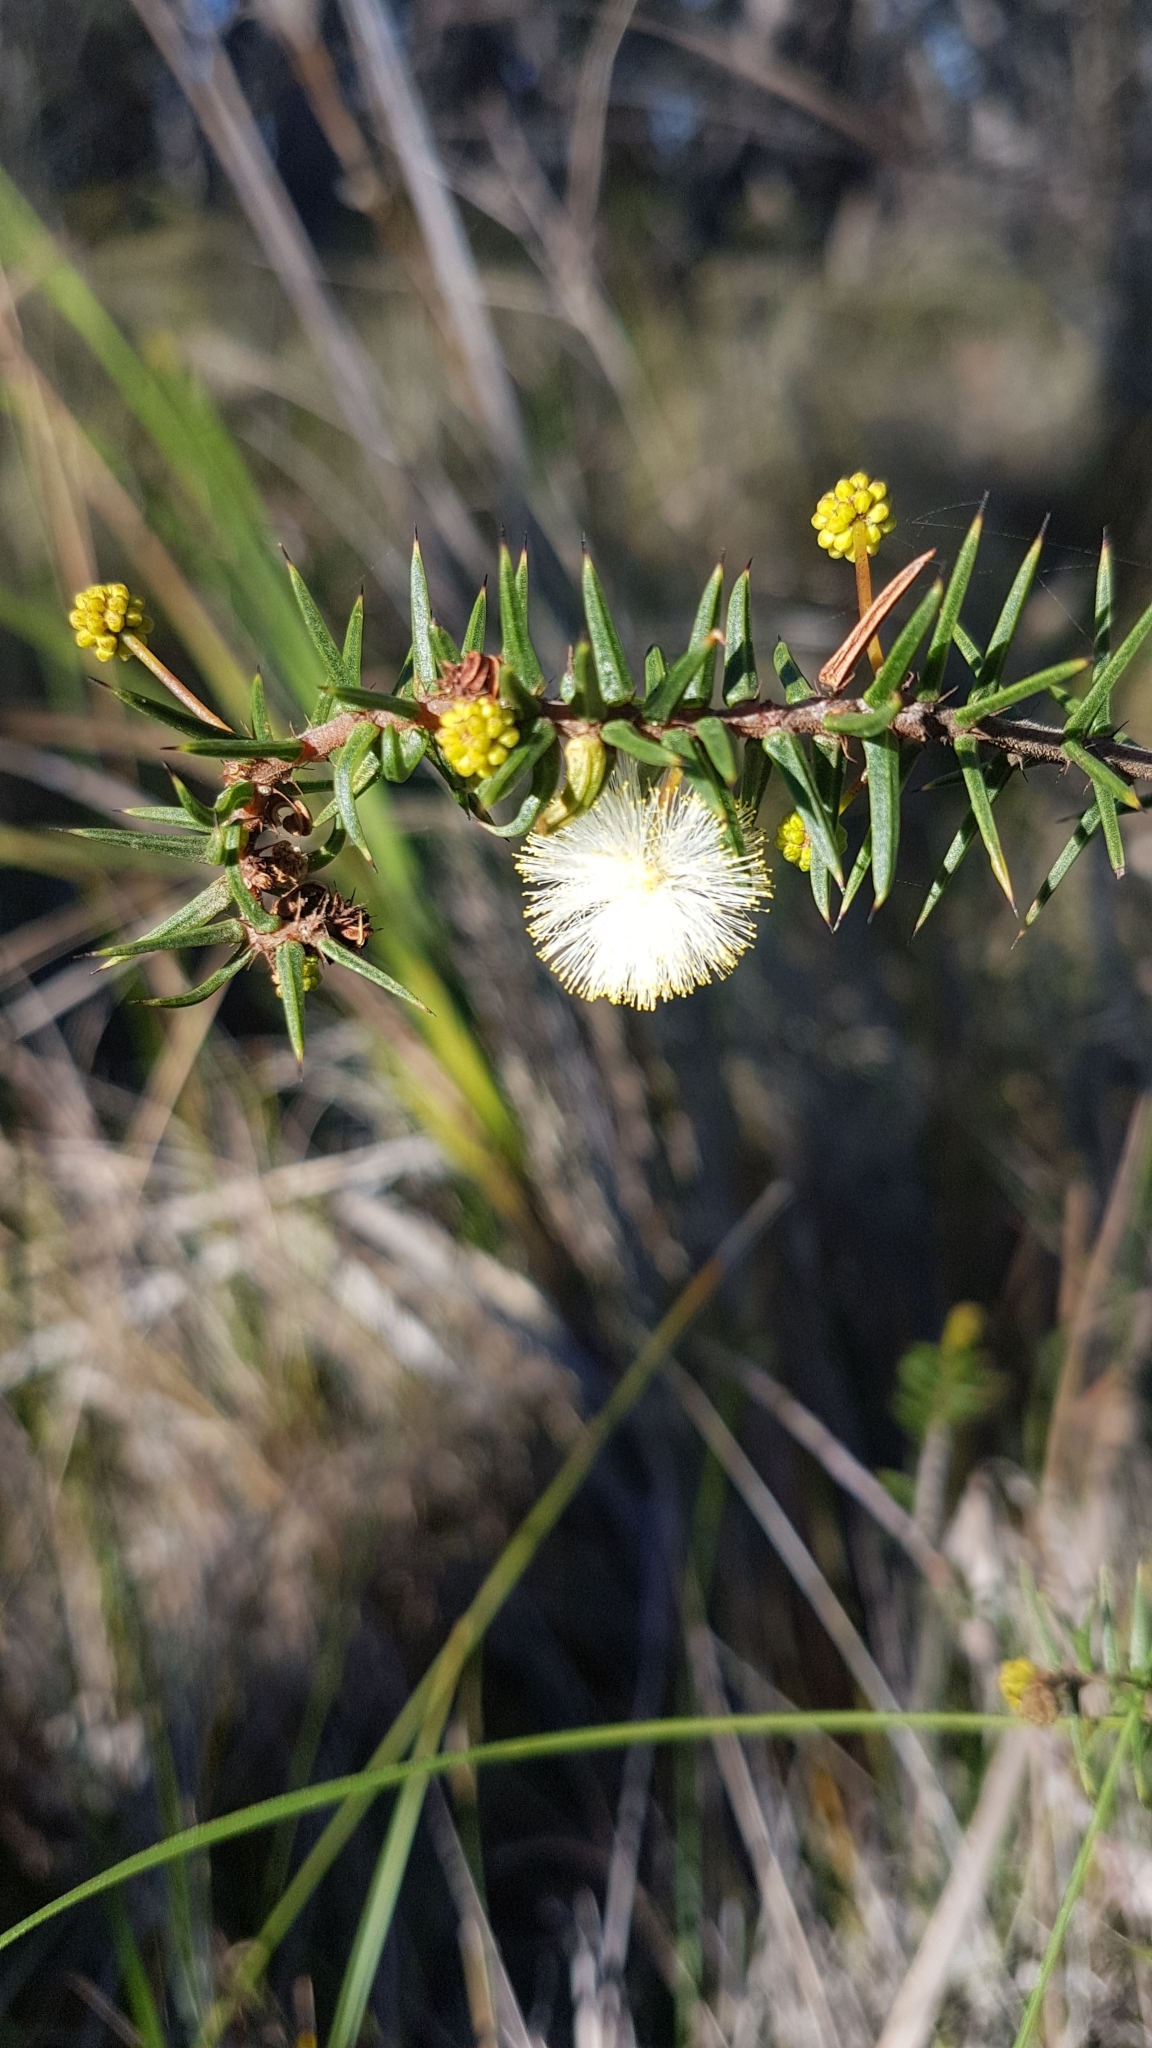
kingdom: Plantae
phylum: Tracheophyta
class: Magnoliopsida
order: Fabales
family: Fabaceae
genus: Acacia
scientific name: Acacia ulicifolia
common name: Juniper wattle
